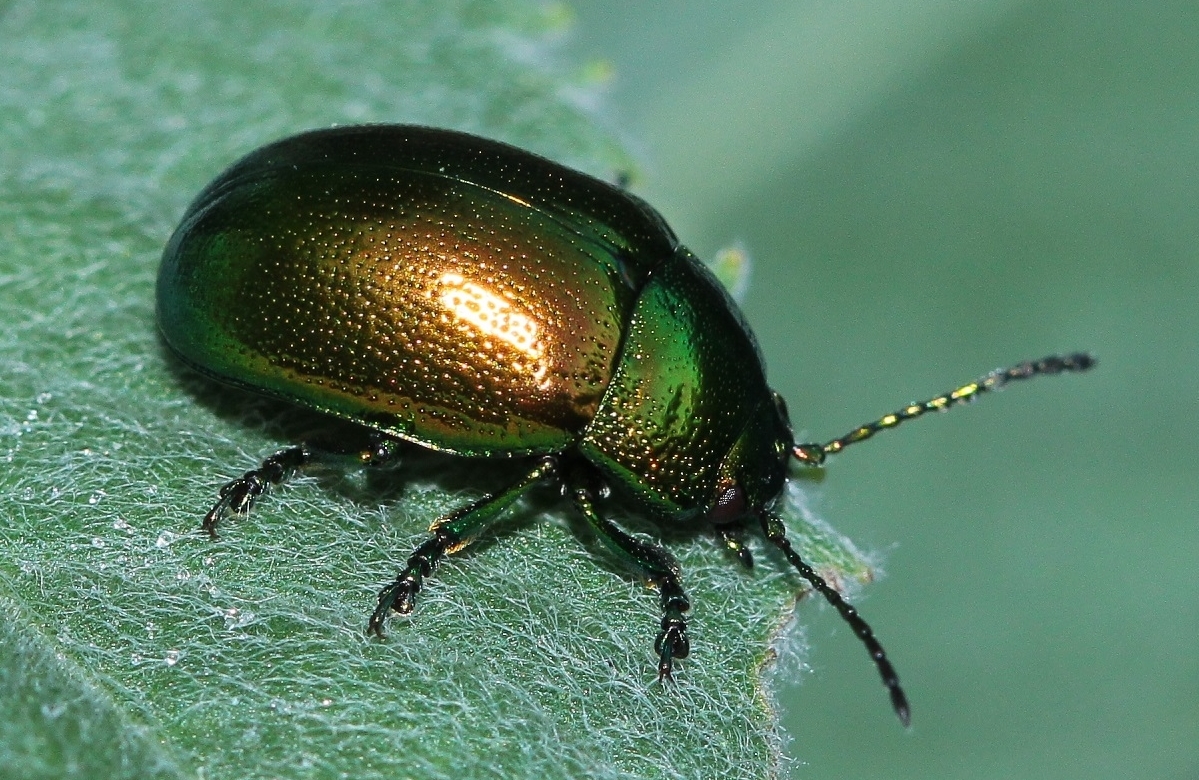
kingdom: Animalia
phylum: Arthropoda
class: Insecta
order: Coleoptera
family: Chrysomelidae
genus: Chrysolina
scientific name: Chrysolina herbacea
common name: Mint leaf beatle
